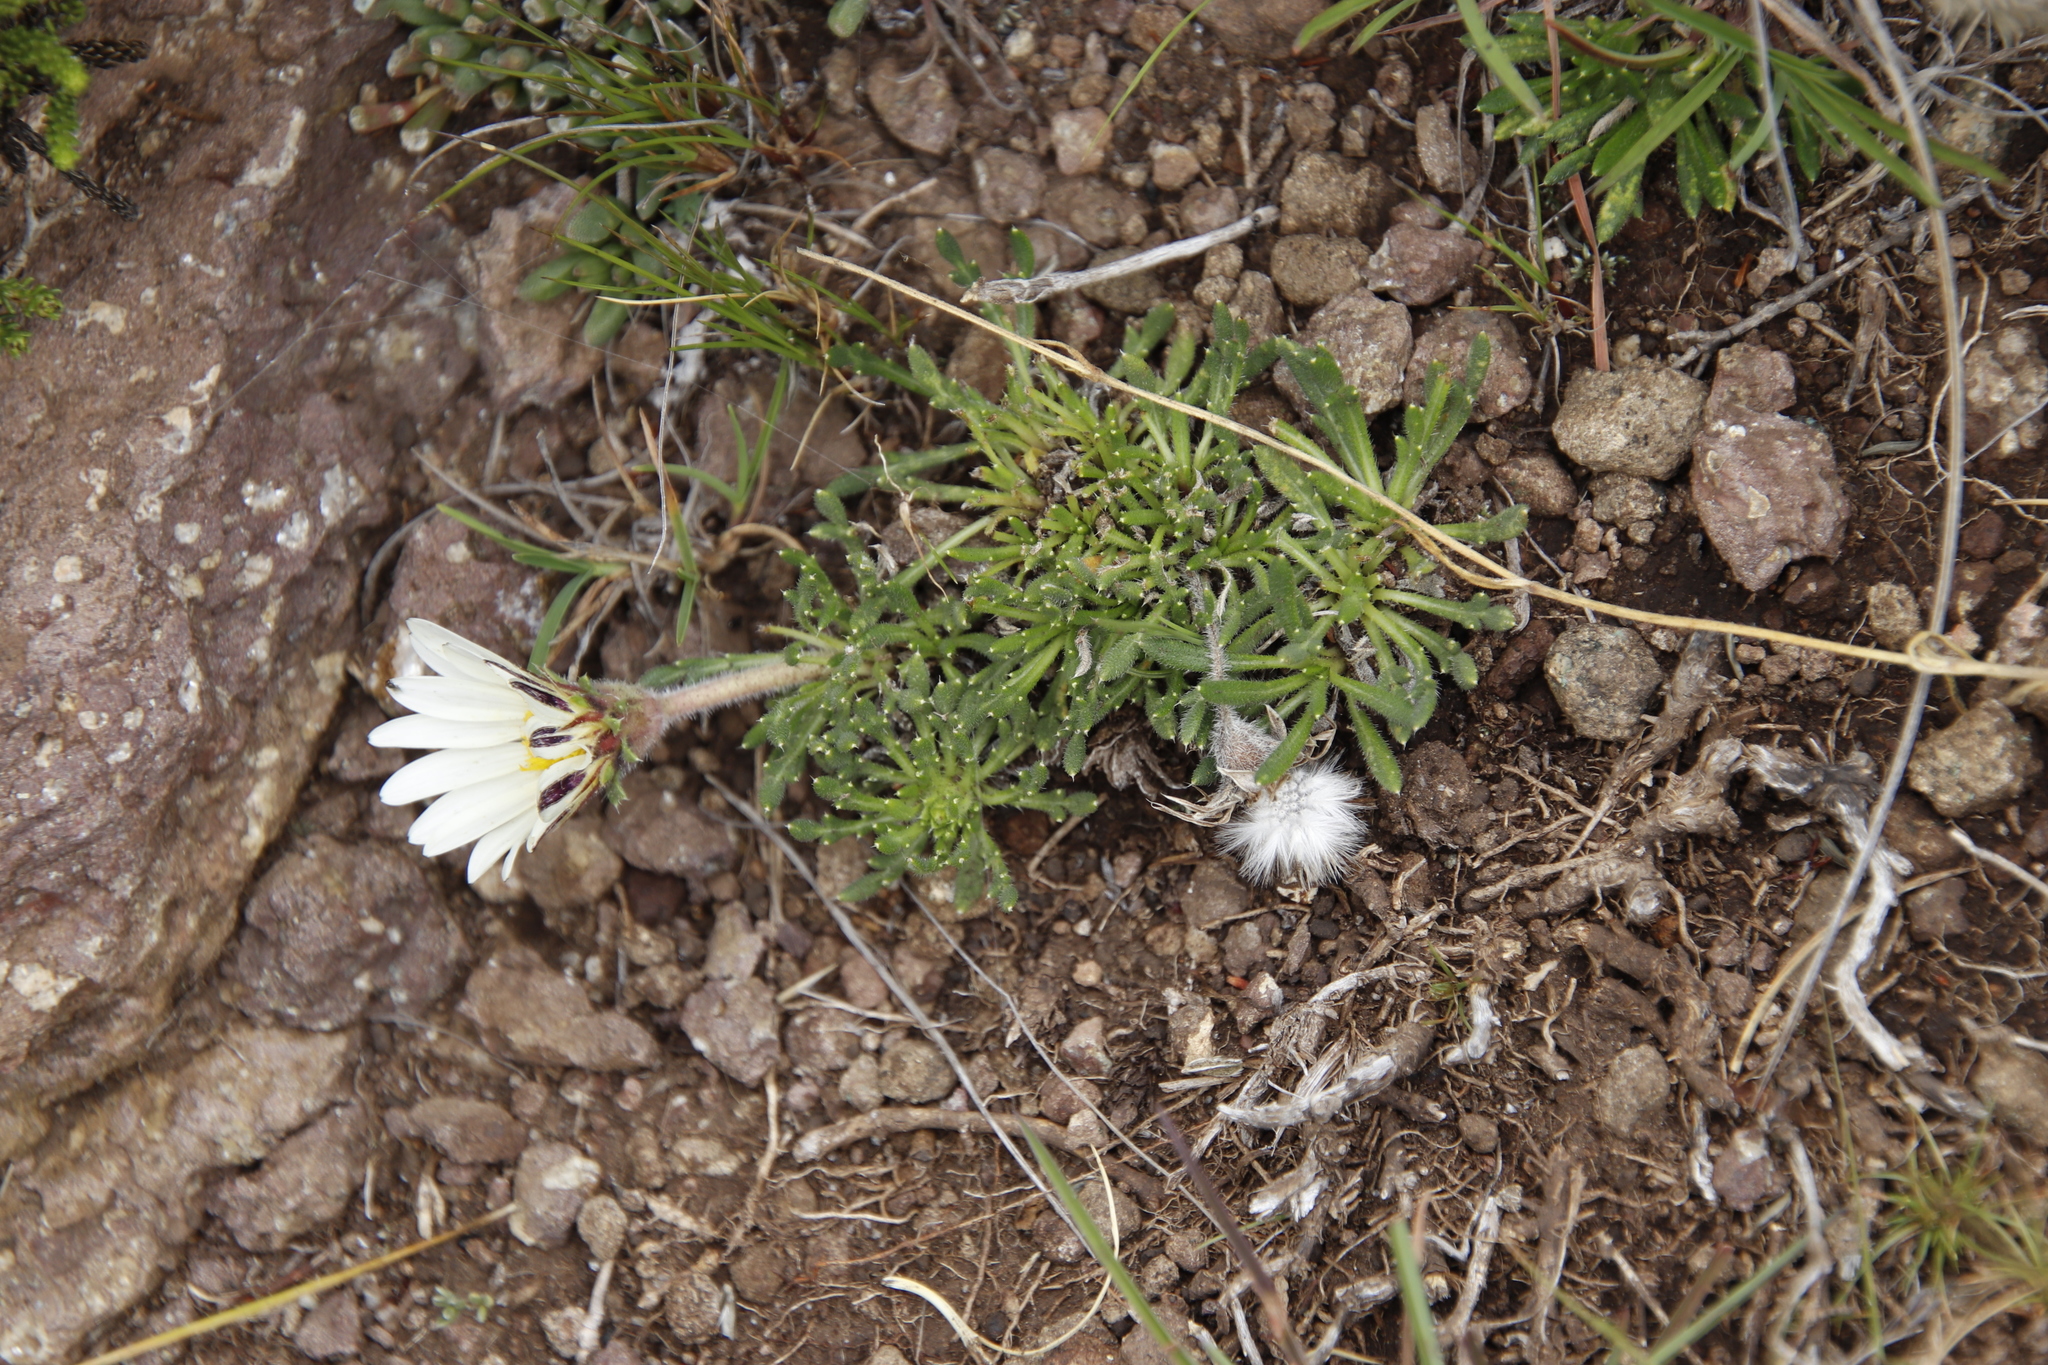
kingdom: Plantae
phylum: Tracheophyta
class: Magnoliopsida
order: Asterales
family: Asteraceae
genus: Roessleria
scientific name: Roessleria armerioides
